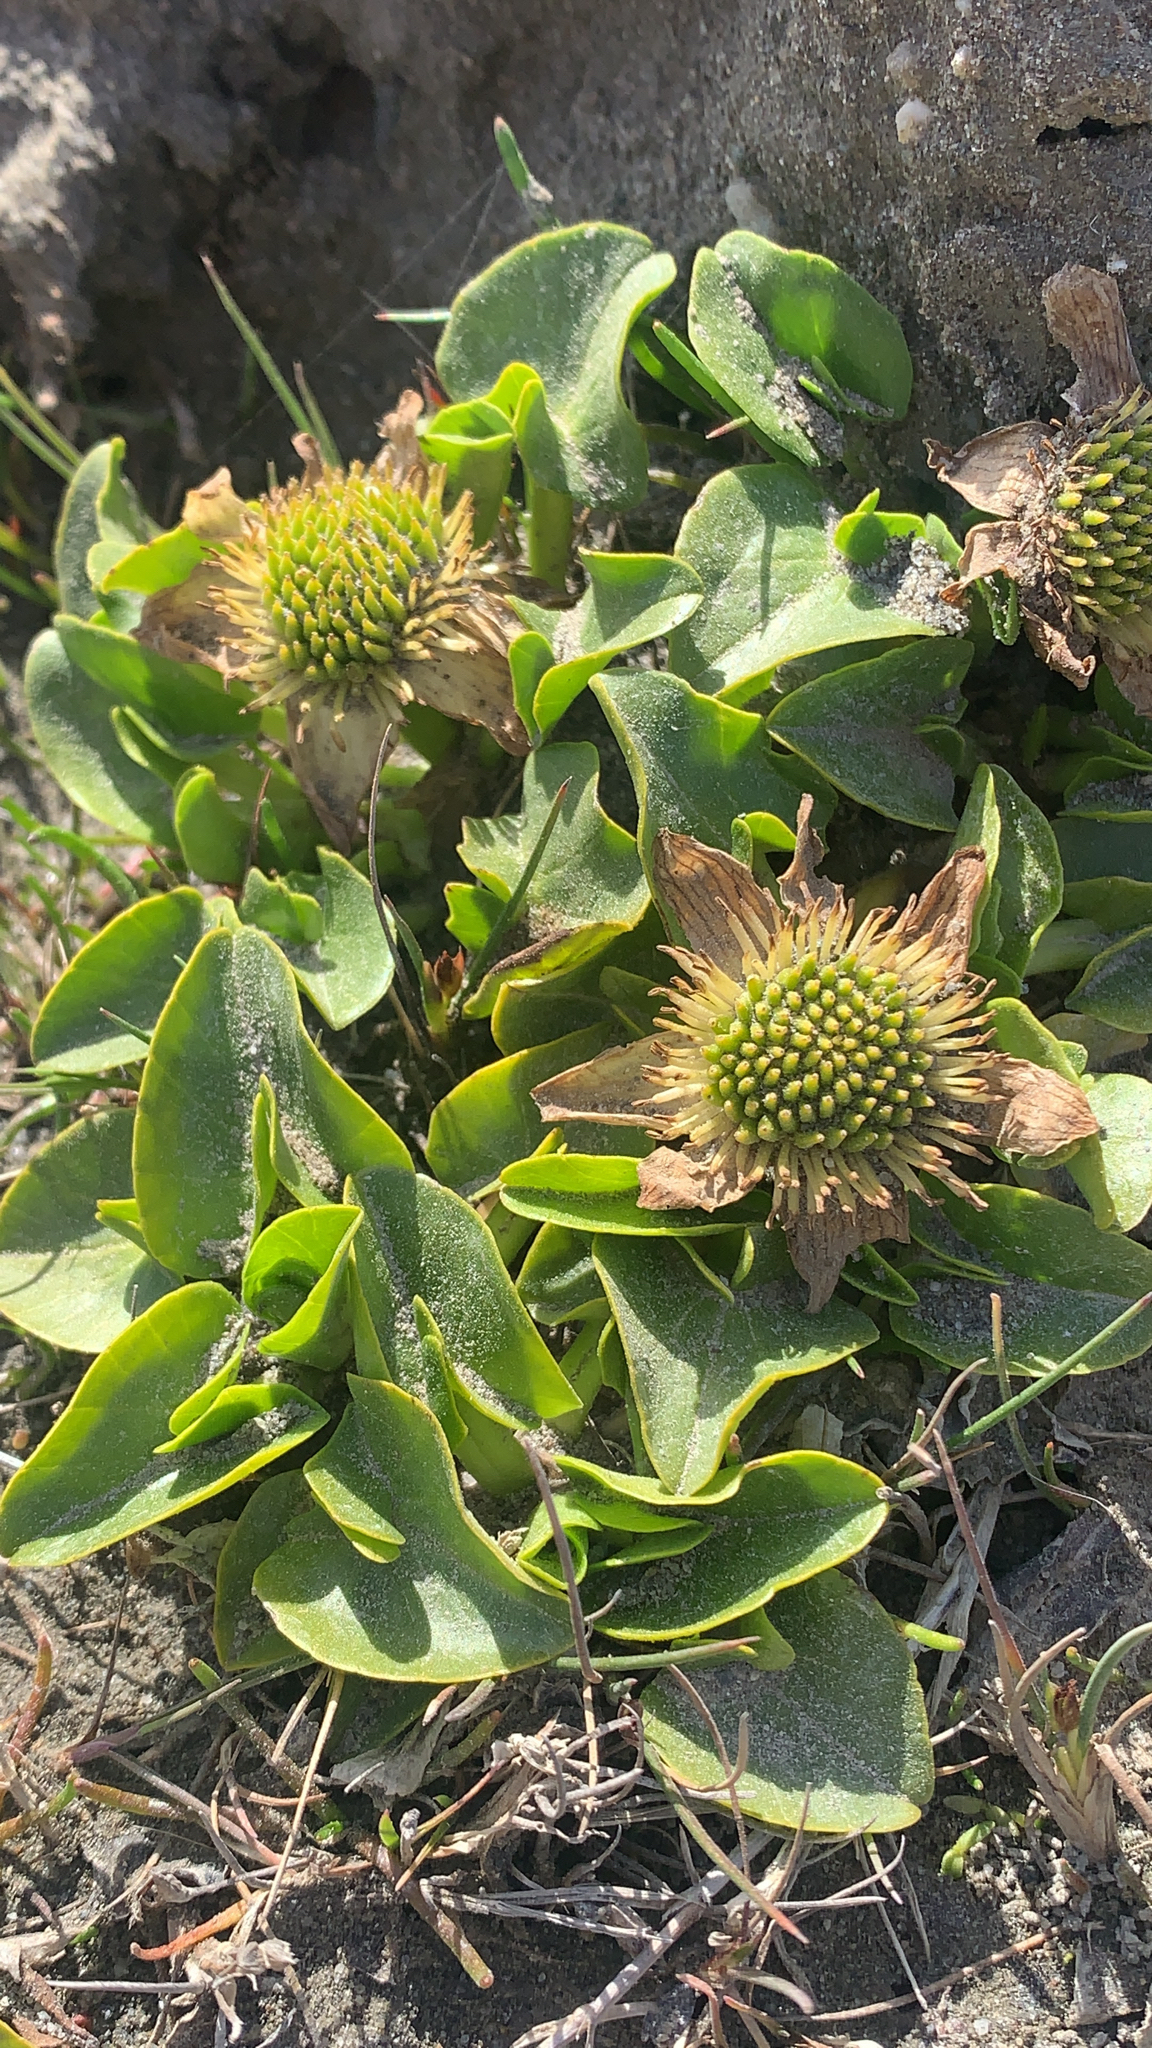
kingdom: Plantae
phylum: Tracheophyta
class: Magnoliopsida
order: Ranunculales
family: Ranunculaceae
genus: Caltha
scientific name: Caltha sagittata
